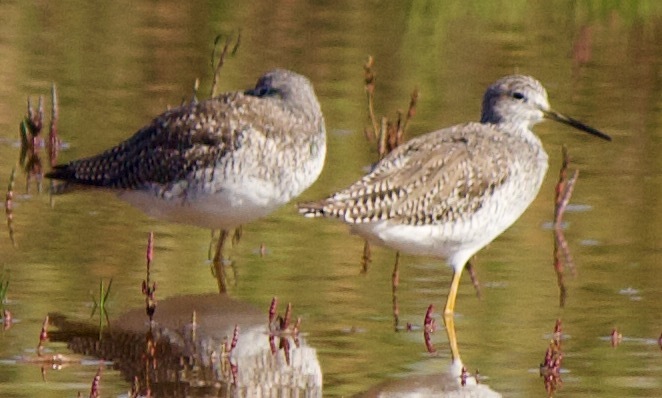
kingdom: Animalia
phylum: Chordata
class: Aves
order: Charadriiformes
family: Scolopacidae
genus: Tringa
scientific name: Tringa melanoleuca
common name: Greater yellowlegs
